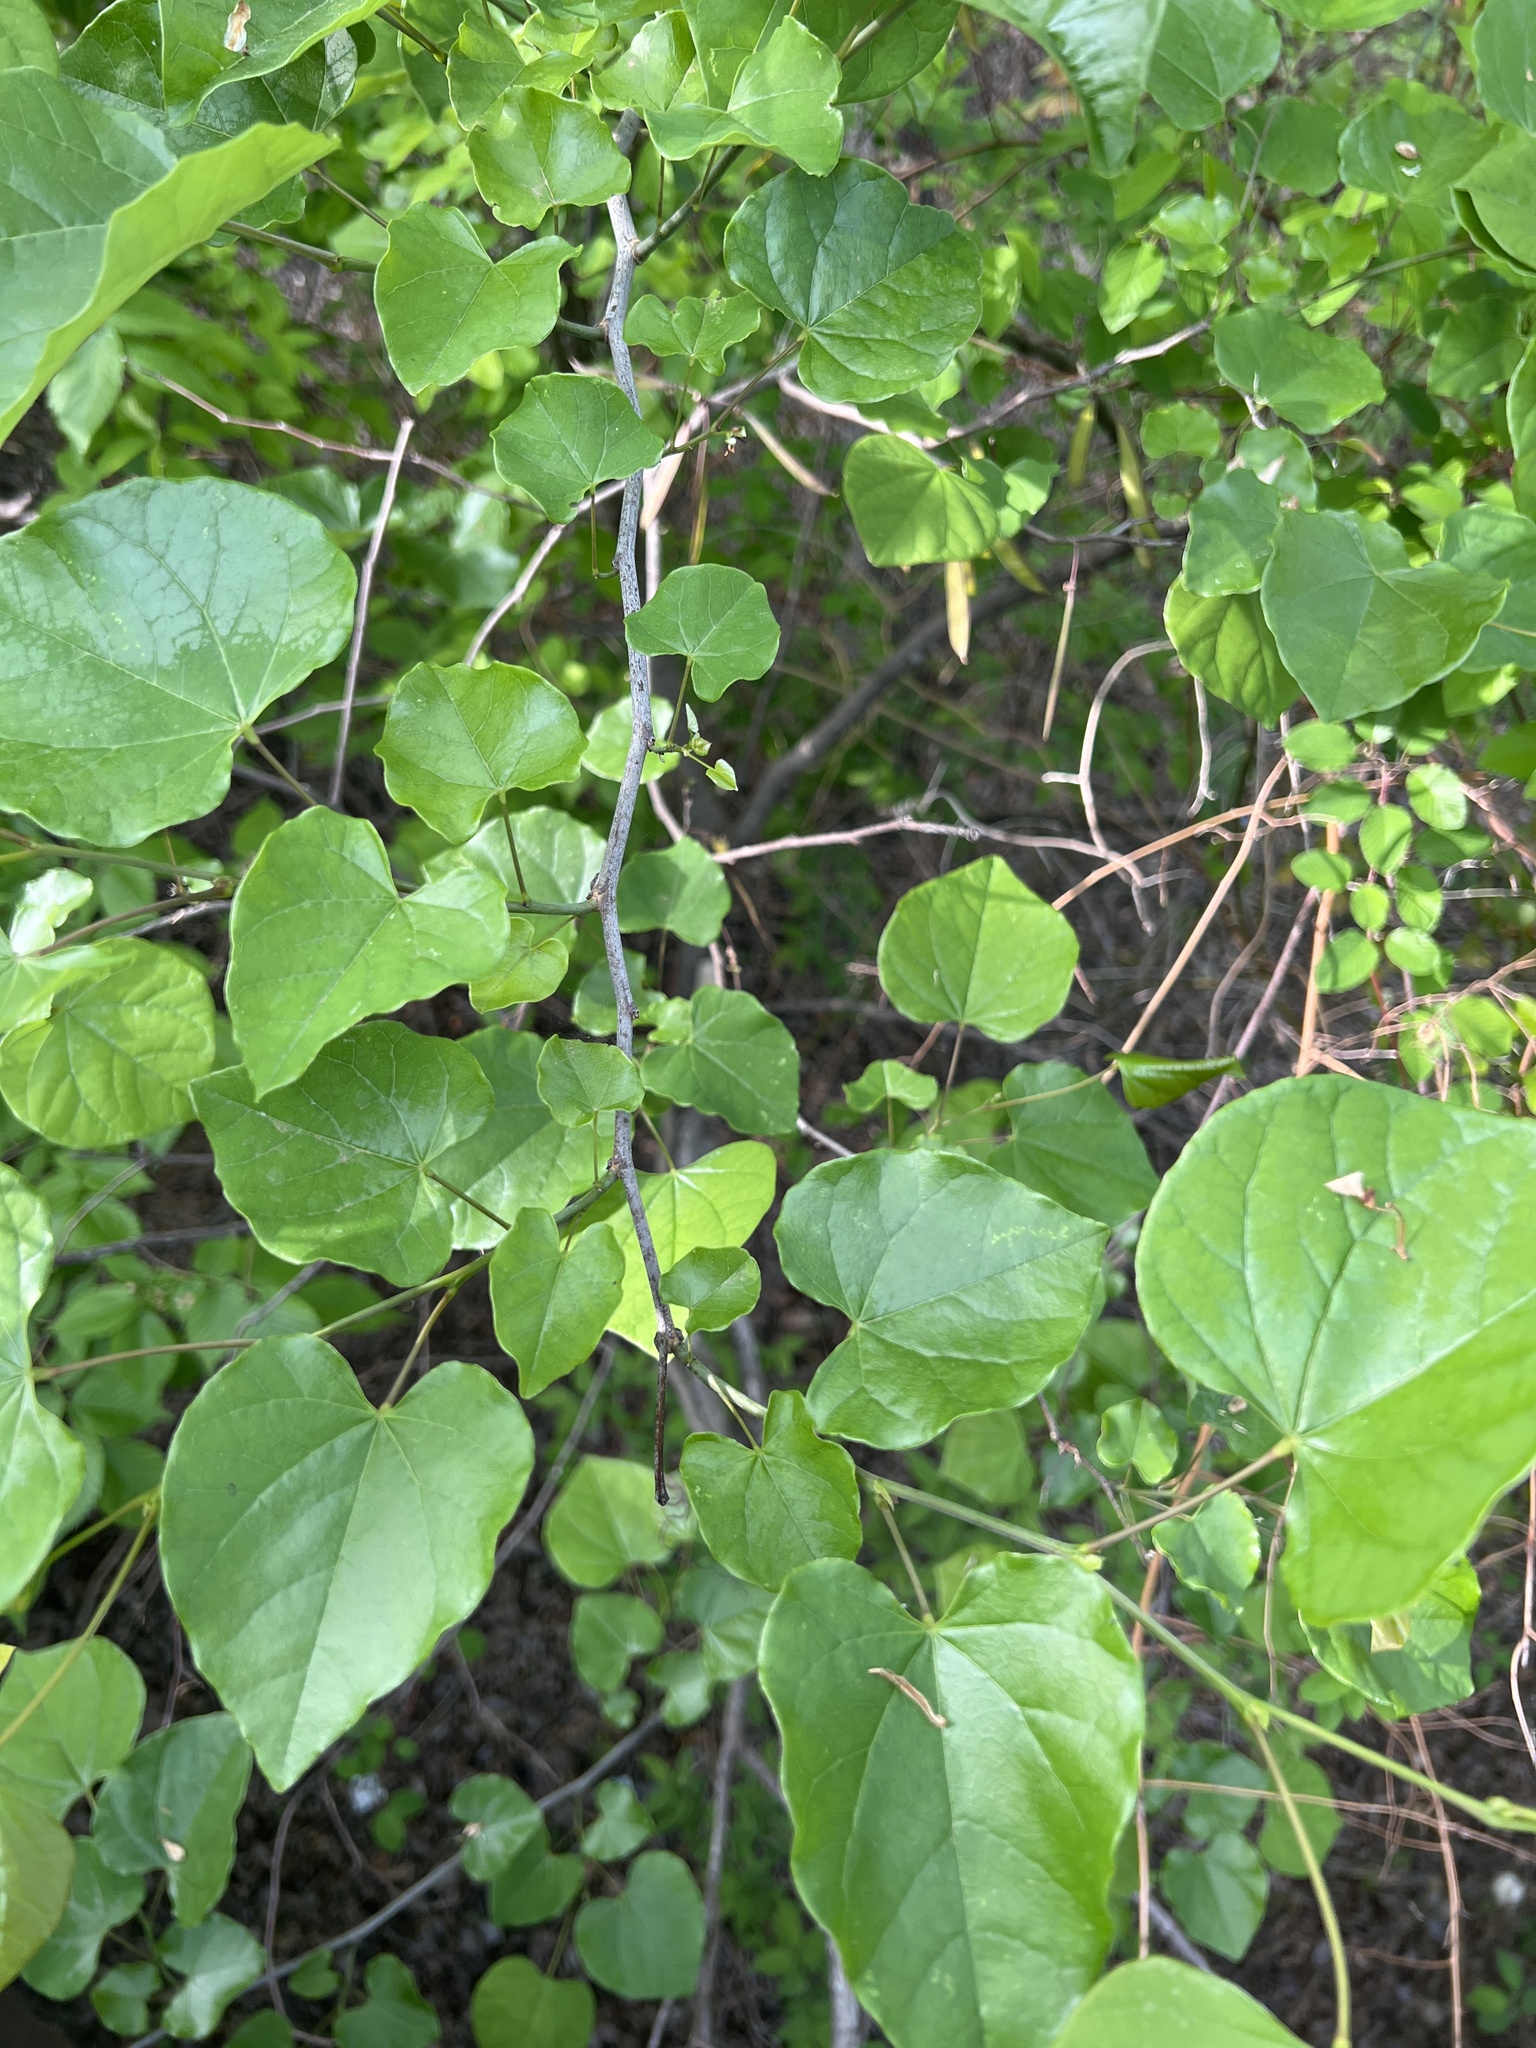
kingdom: Plantae
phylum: Tracheophyta
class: Magnoliopsida
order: Fabales
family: Fabaceae
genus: Cercis
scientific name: Cercis canadensis
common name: Eastern redbud
